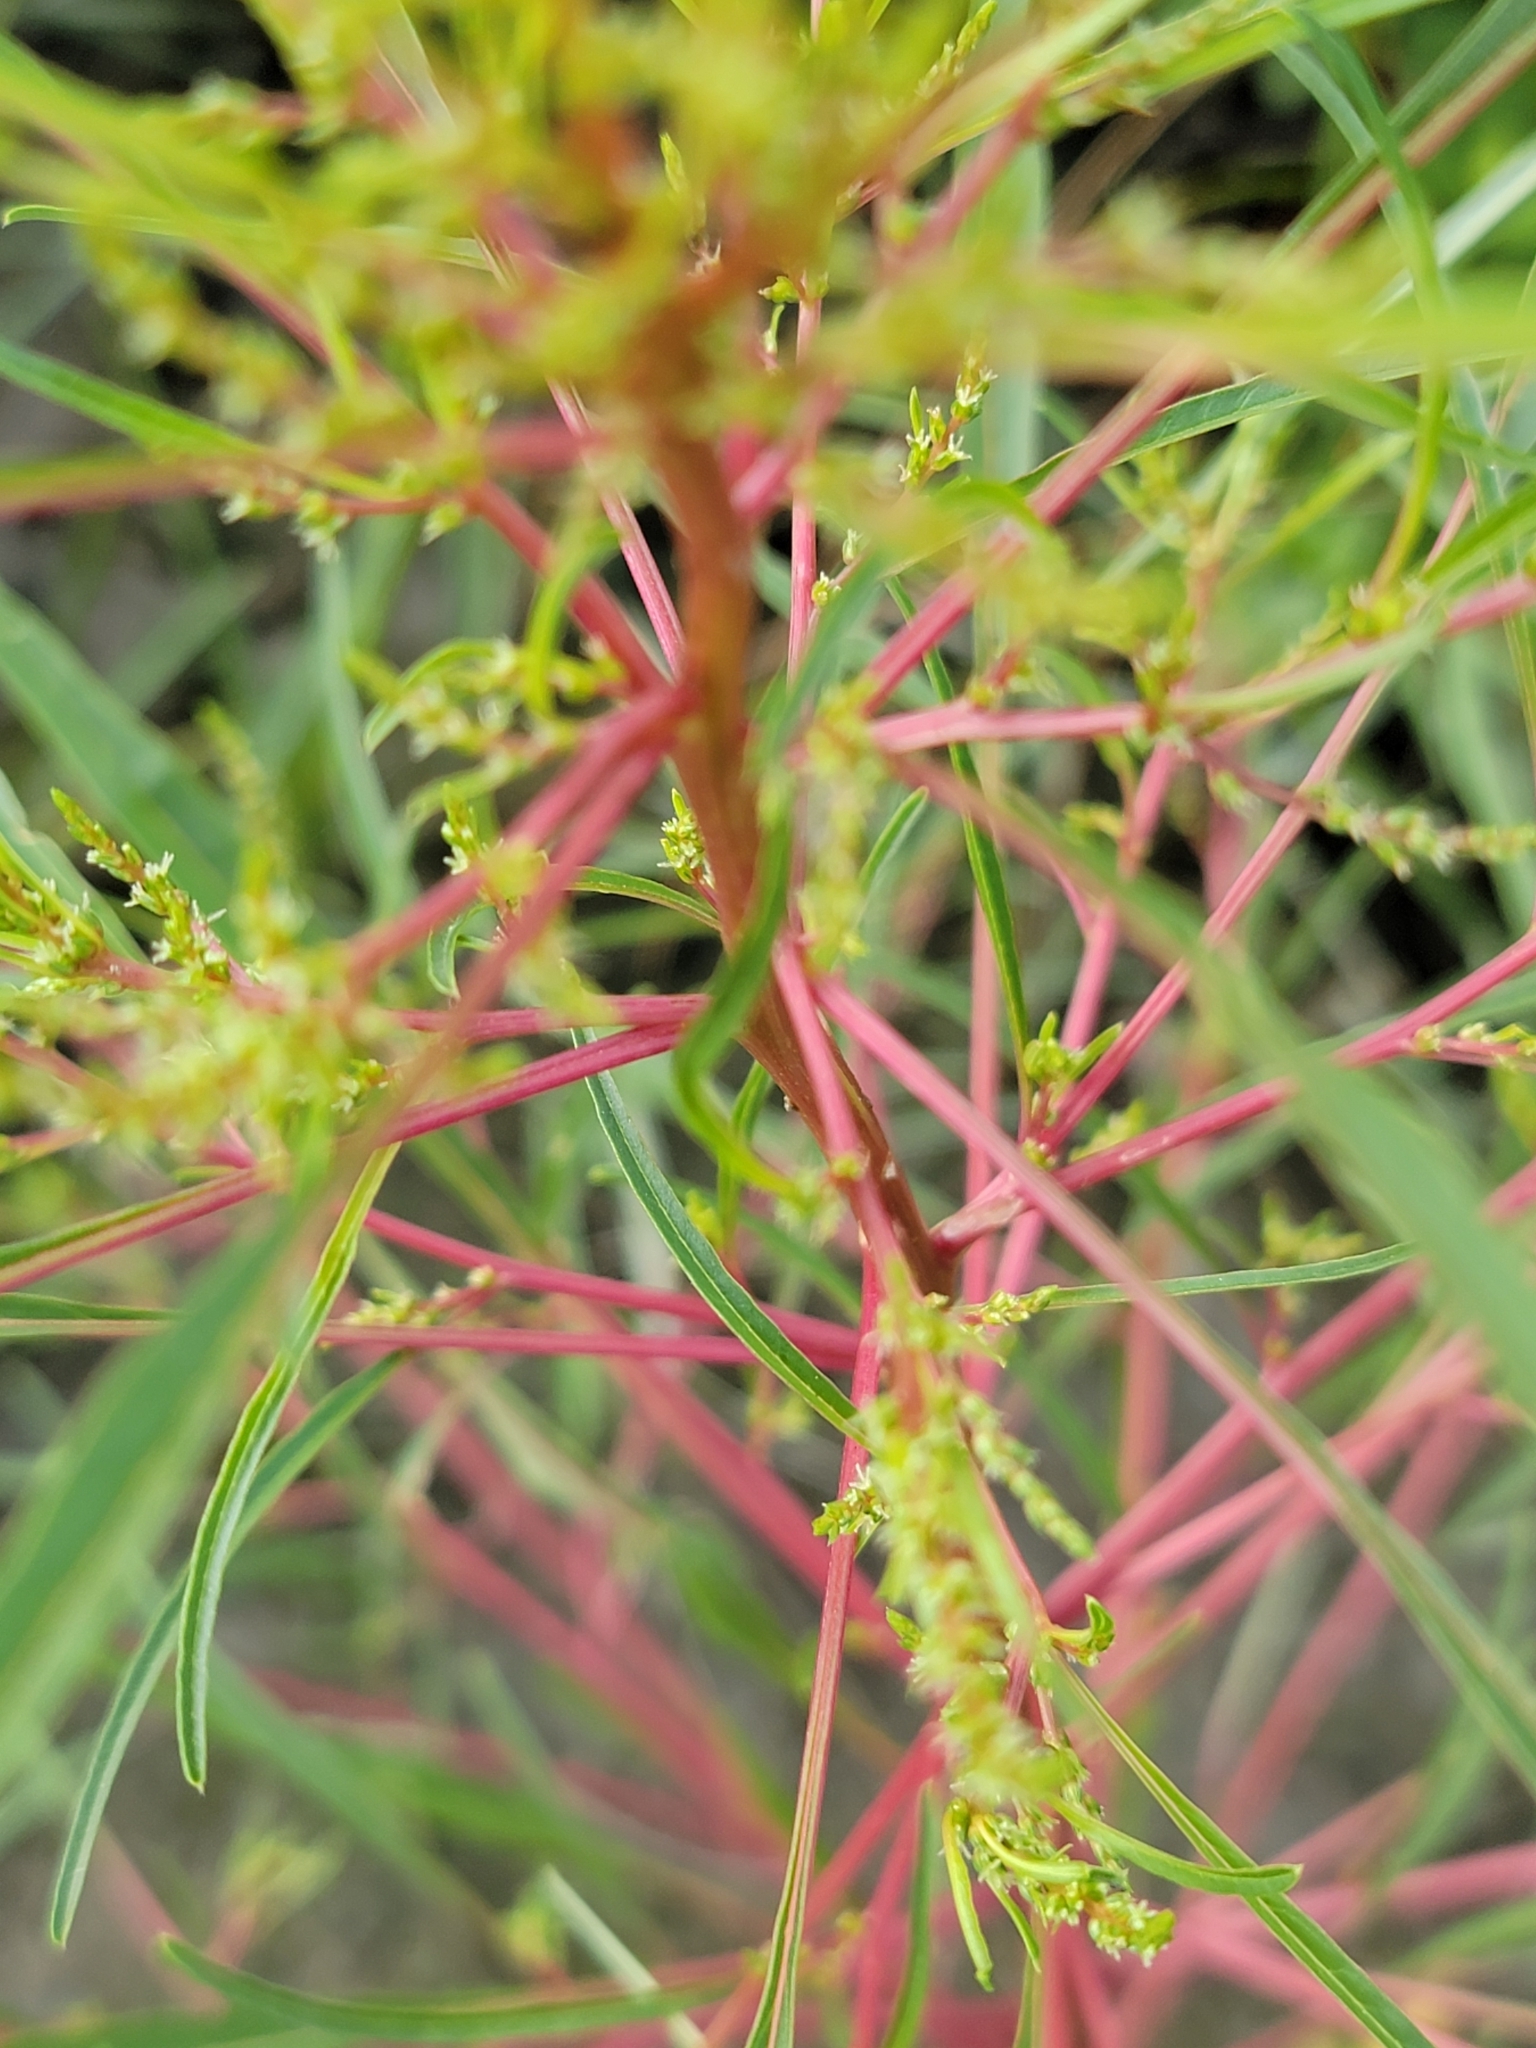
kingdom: Plantae
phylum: Tracheophyta
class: Magnoliopsida
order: Caryophyllales
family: Amaranthaceae
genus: Amaranthus
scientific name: Amaranthus cannabinus
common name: Salt-marsh water-hemp
